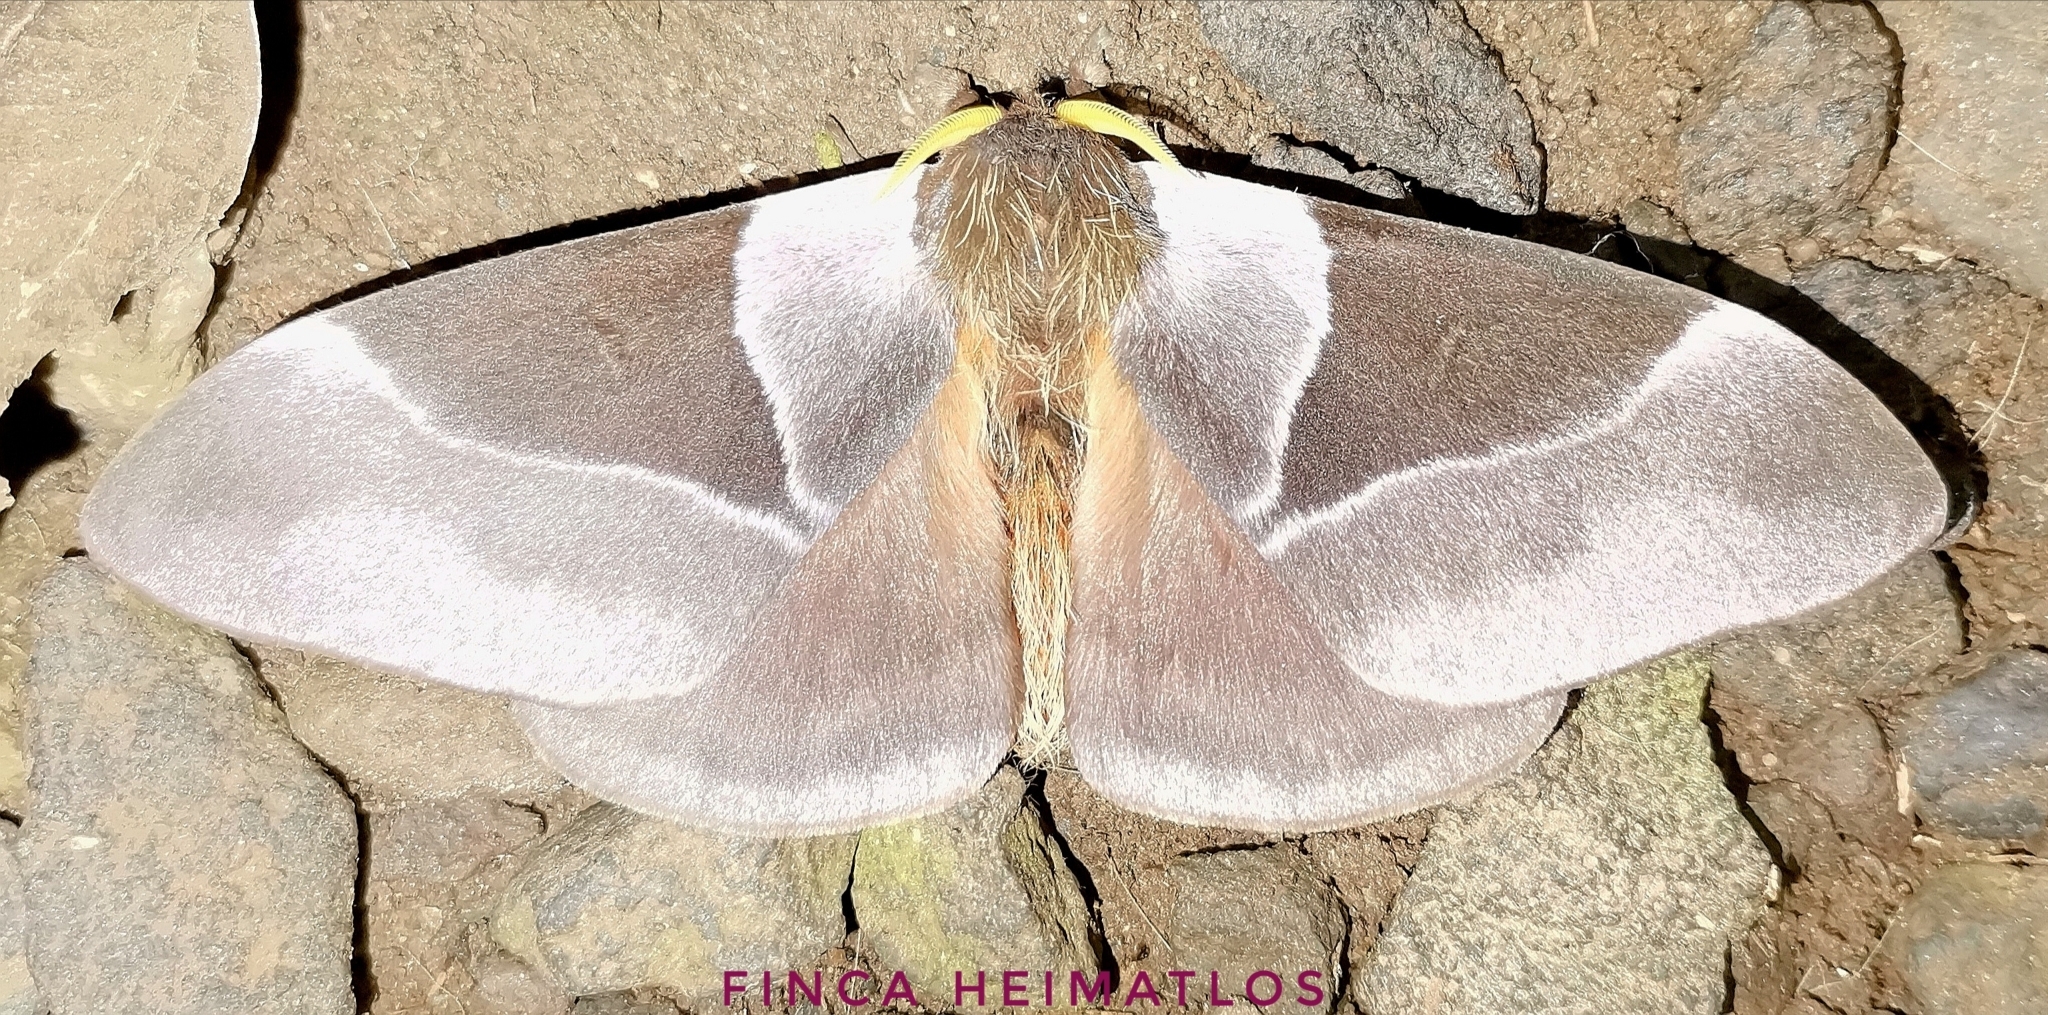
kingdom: Animalia
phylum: Arthropoda
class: Insecta
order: Lepidoptera
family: Saturniidae
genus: Dirphia
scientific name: Dirphia avinapoana
